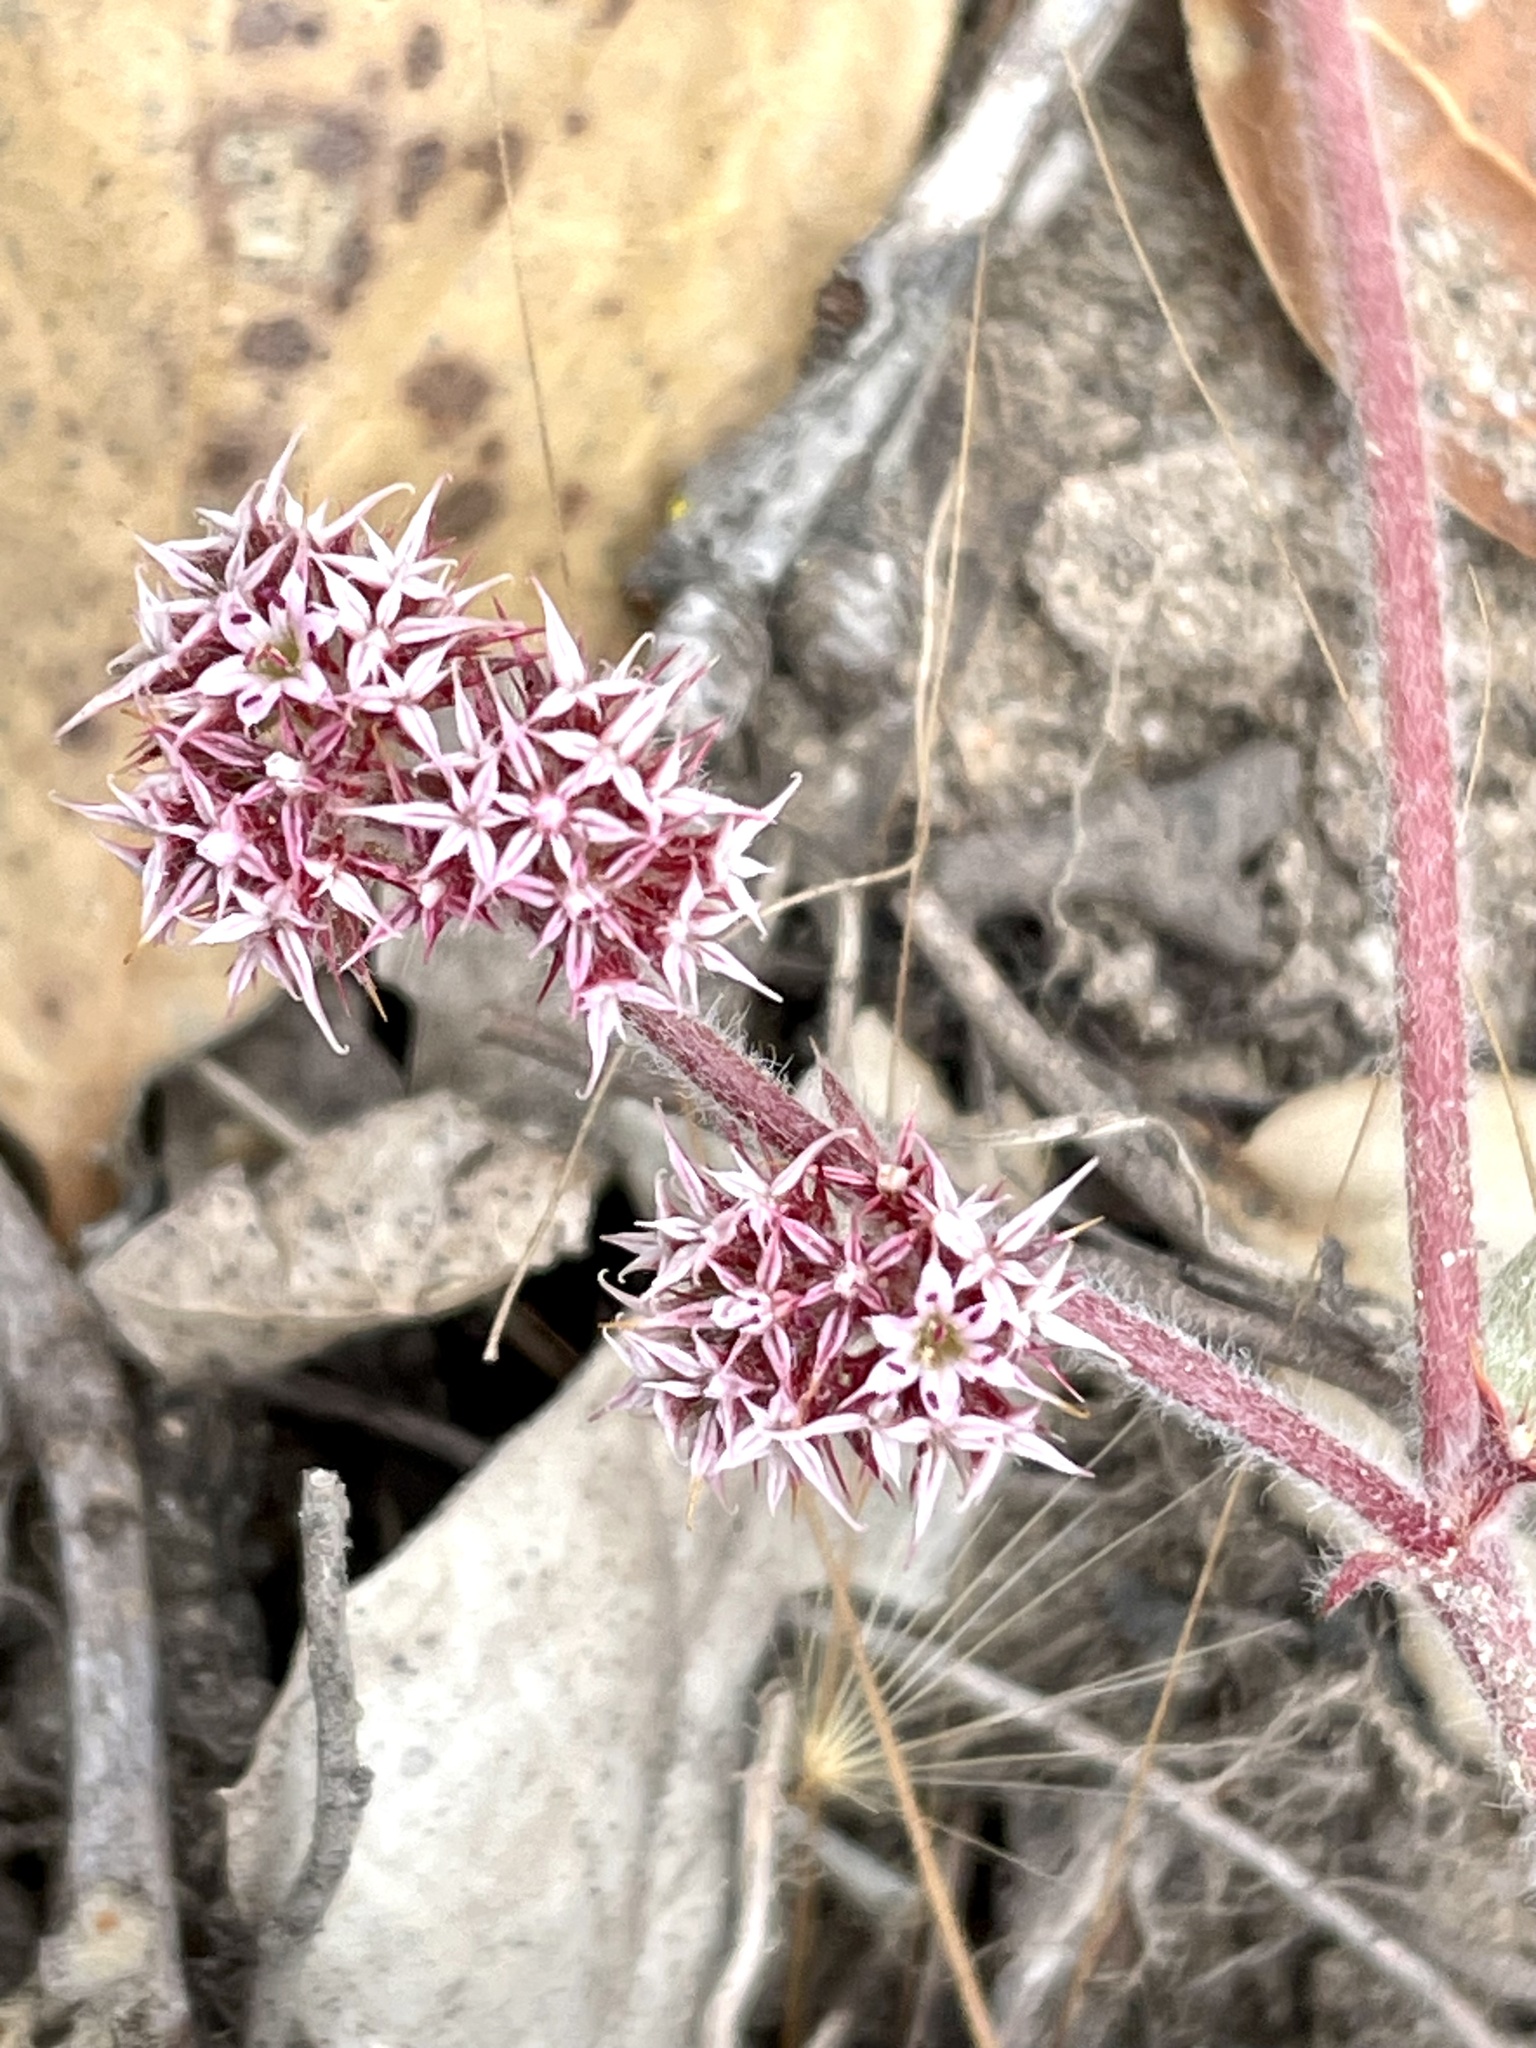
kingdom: Plantae
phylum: Tracheophyta
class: Magnoliopsida
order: Caryophyllales
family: Polygonaceae
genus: Chorizanthe
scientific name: Chorizanthe pungens
